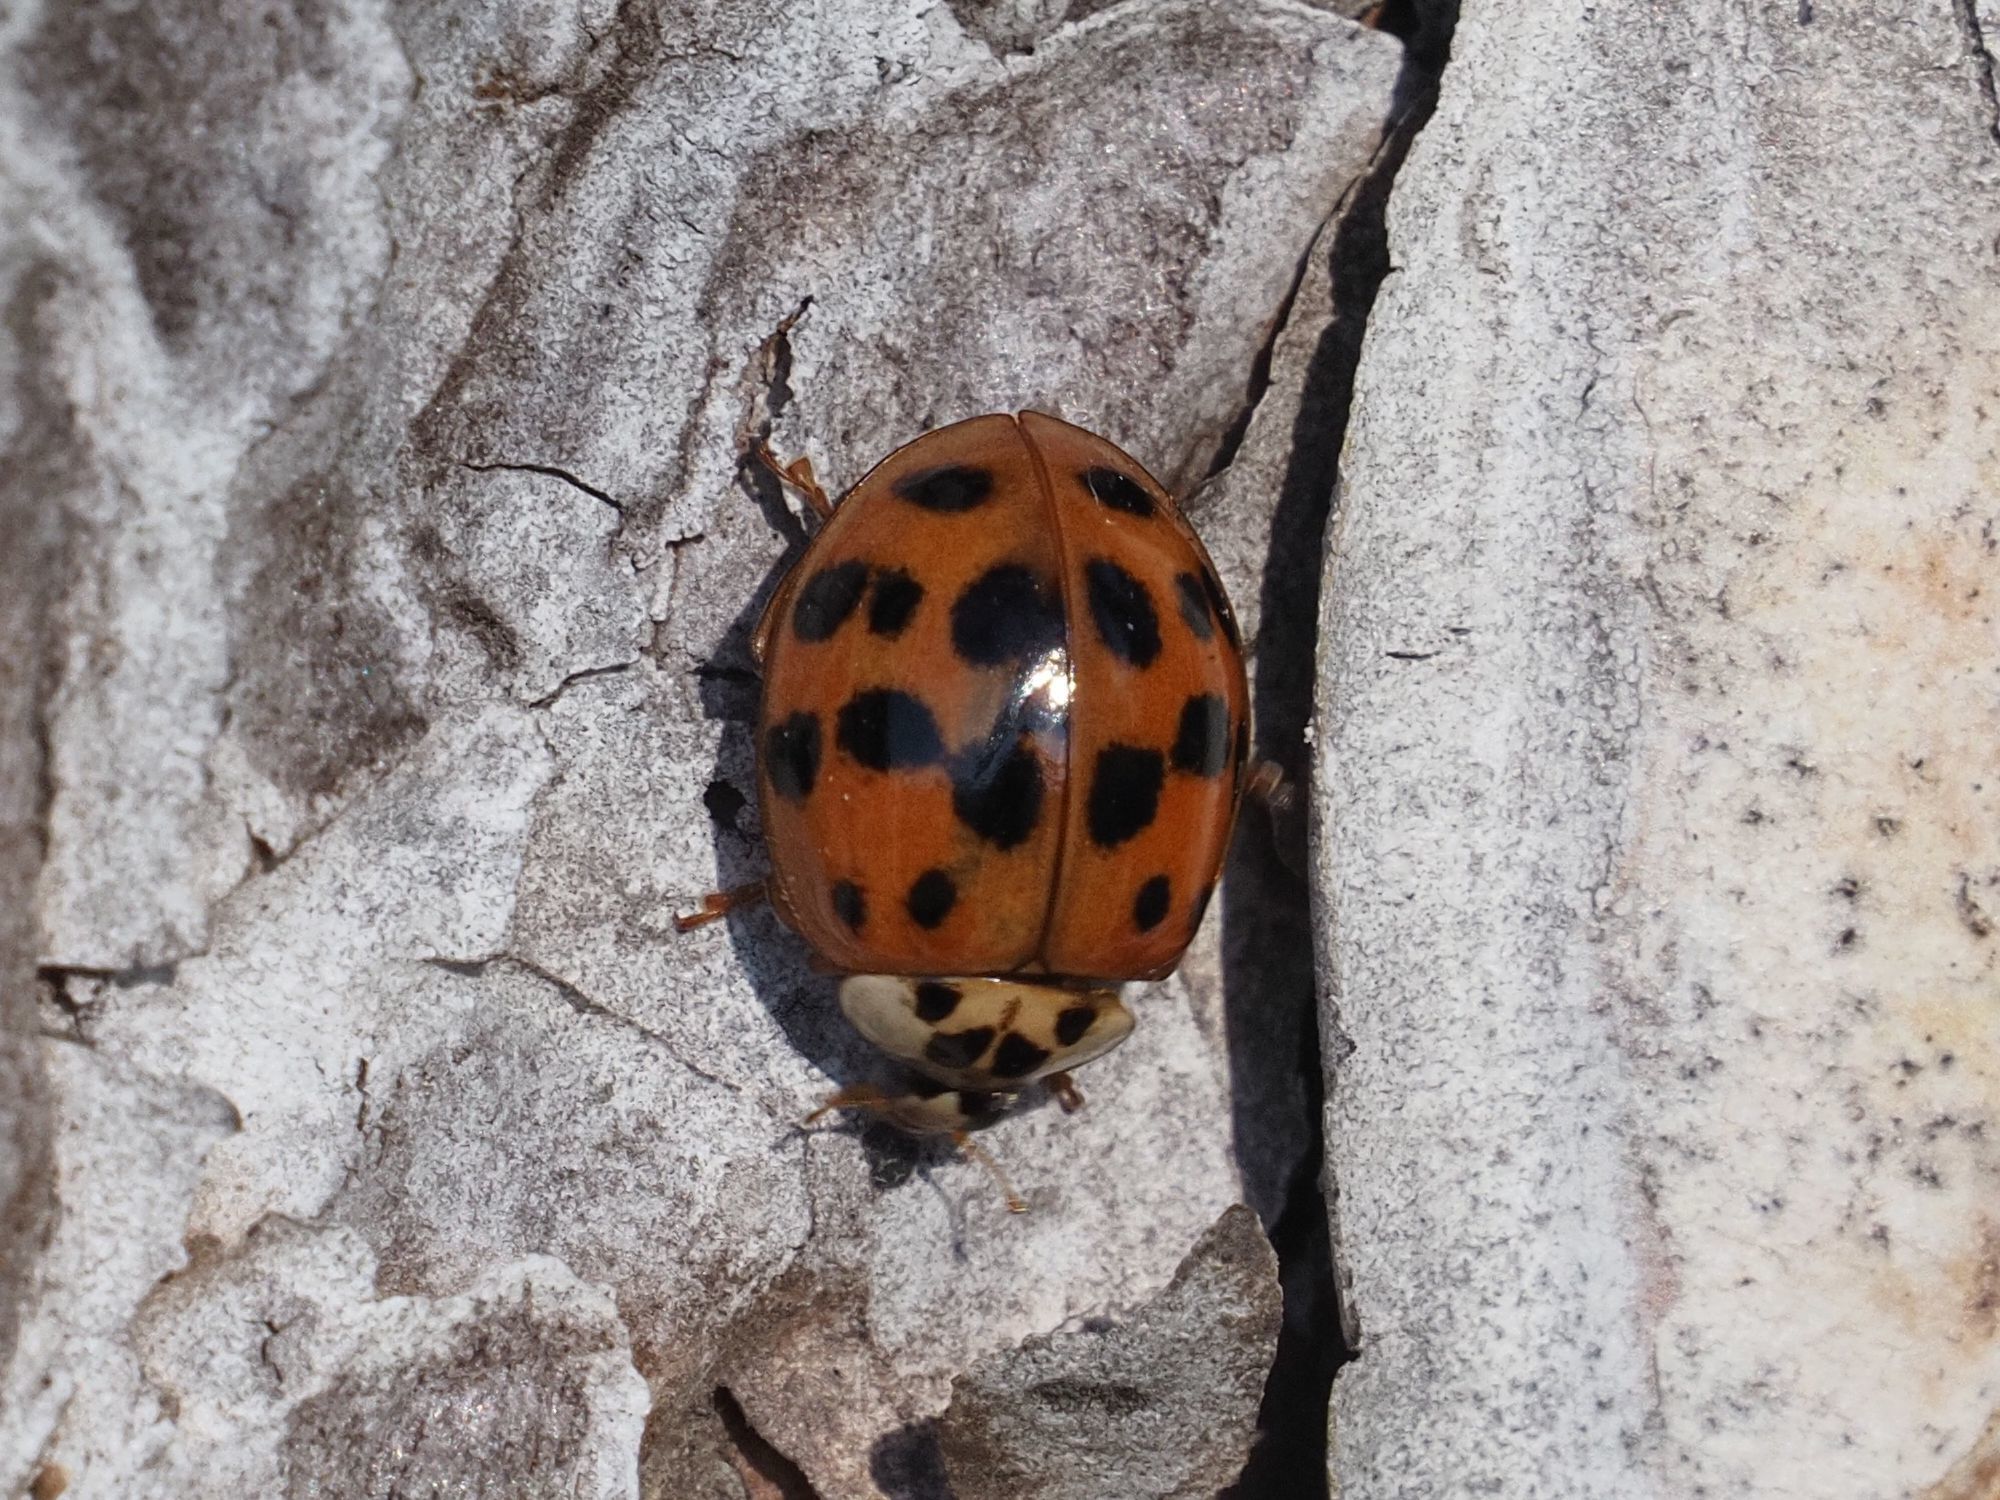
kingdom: Animalia
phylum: Arthropoda
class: Insecta
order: Coleoptera
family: Coccinellidae
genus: Harmonia
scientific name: Harmonia axyridis
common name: Harlequin ladybird
